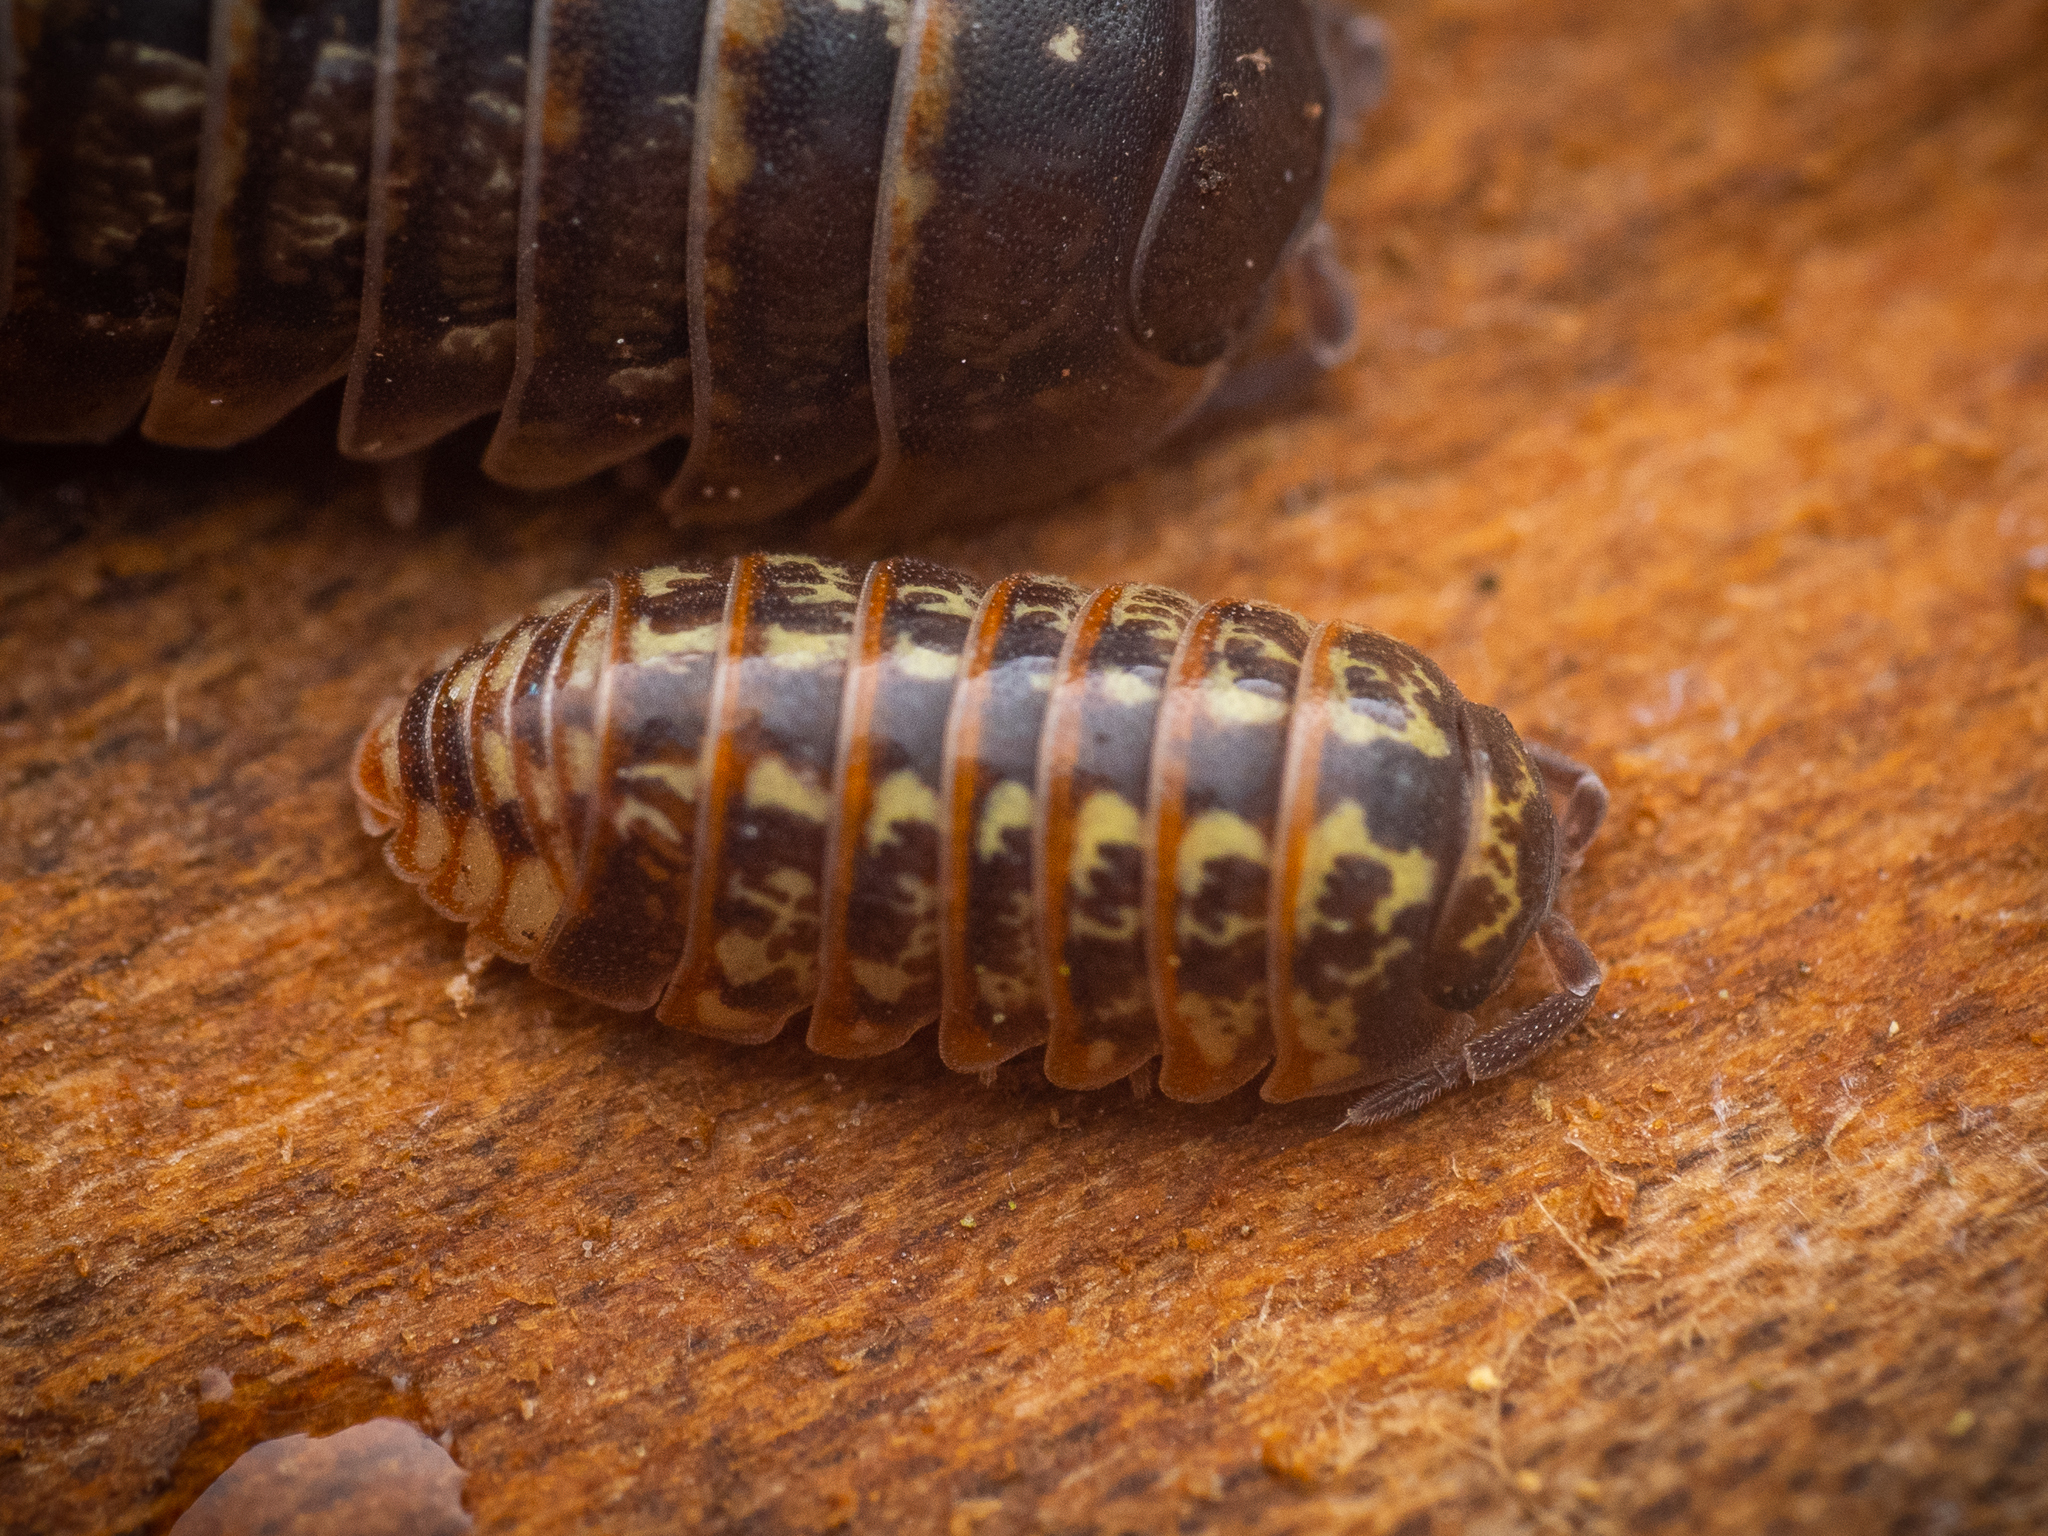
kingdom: Animalia
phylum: Arthropoda
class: Malacostraca
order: Isopoda
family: Armadillidiidae
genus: Armadillidium
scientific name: Armadillidium pulchellum
